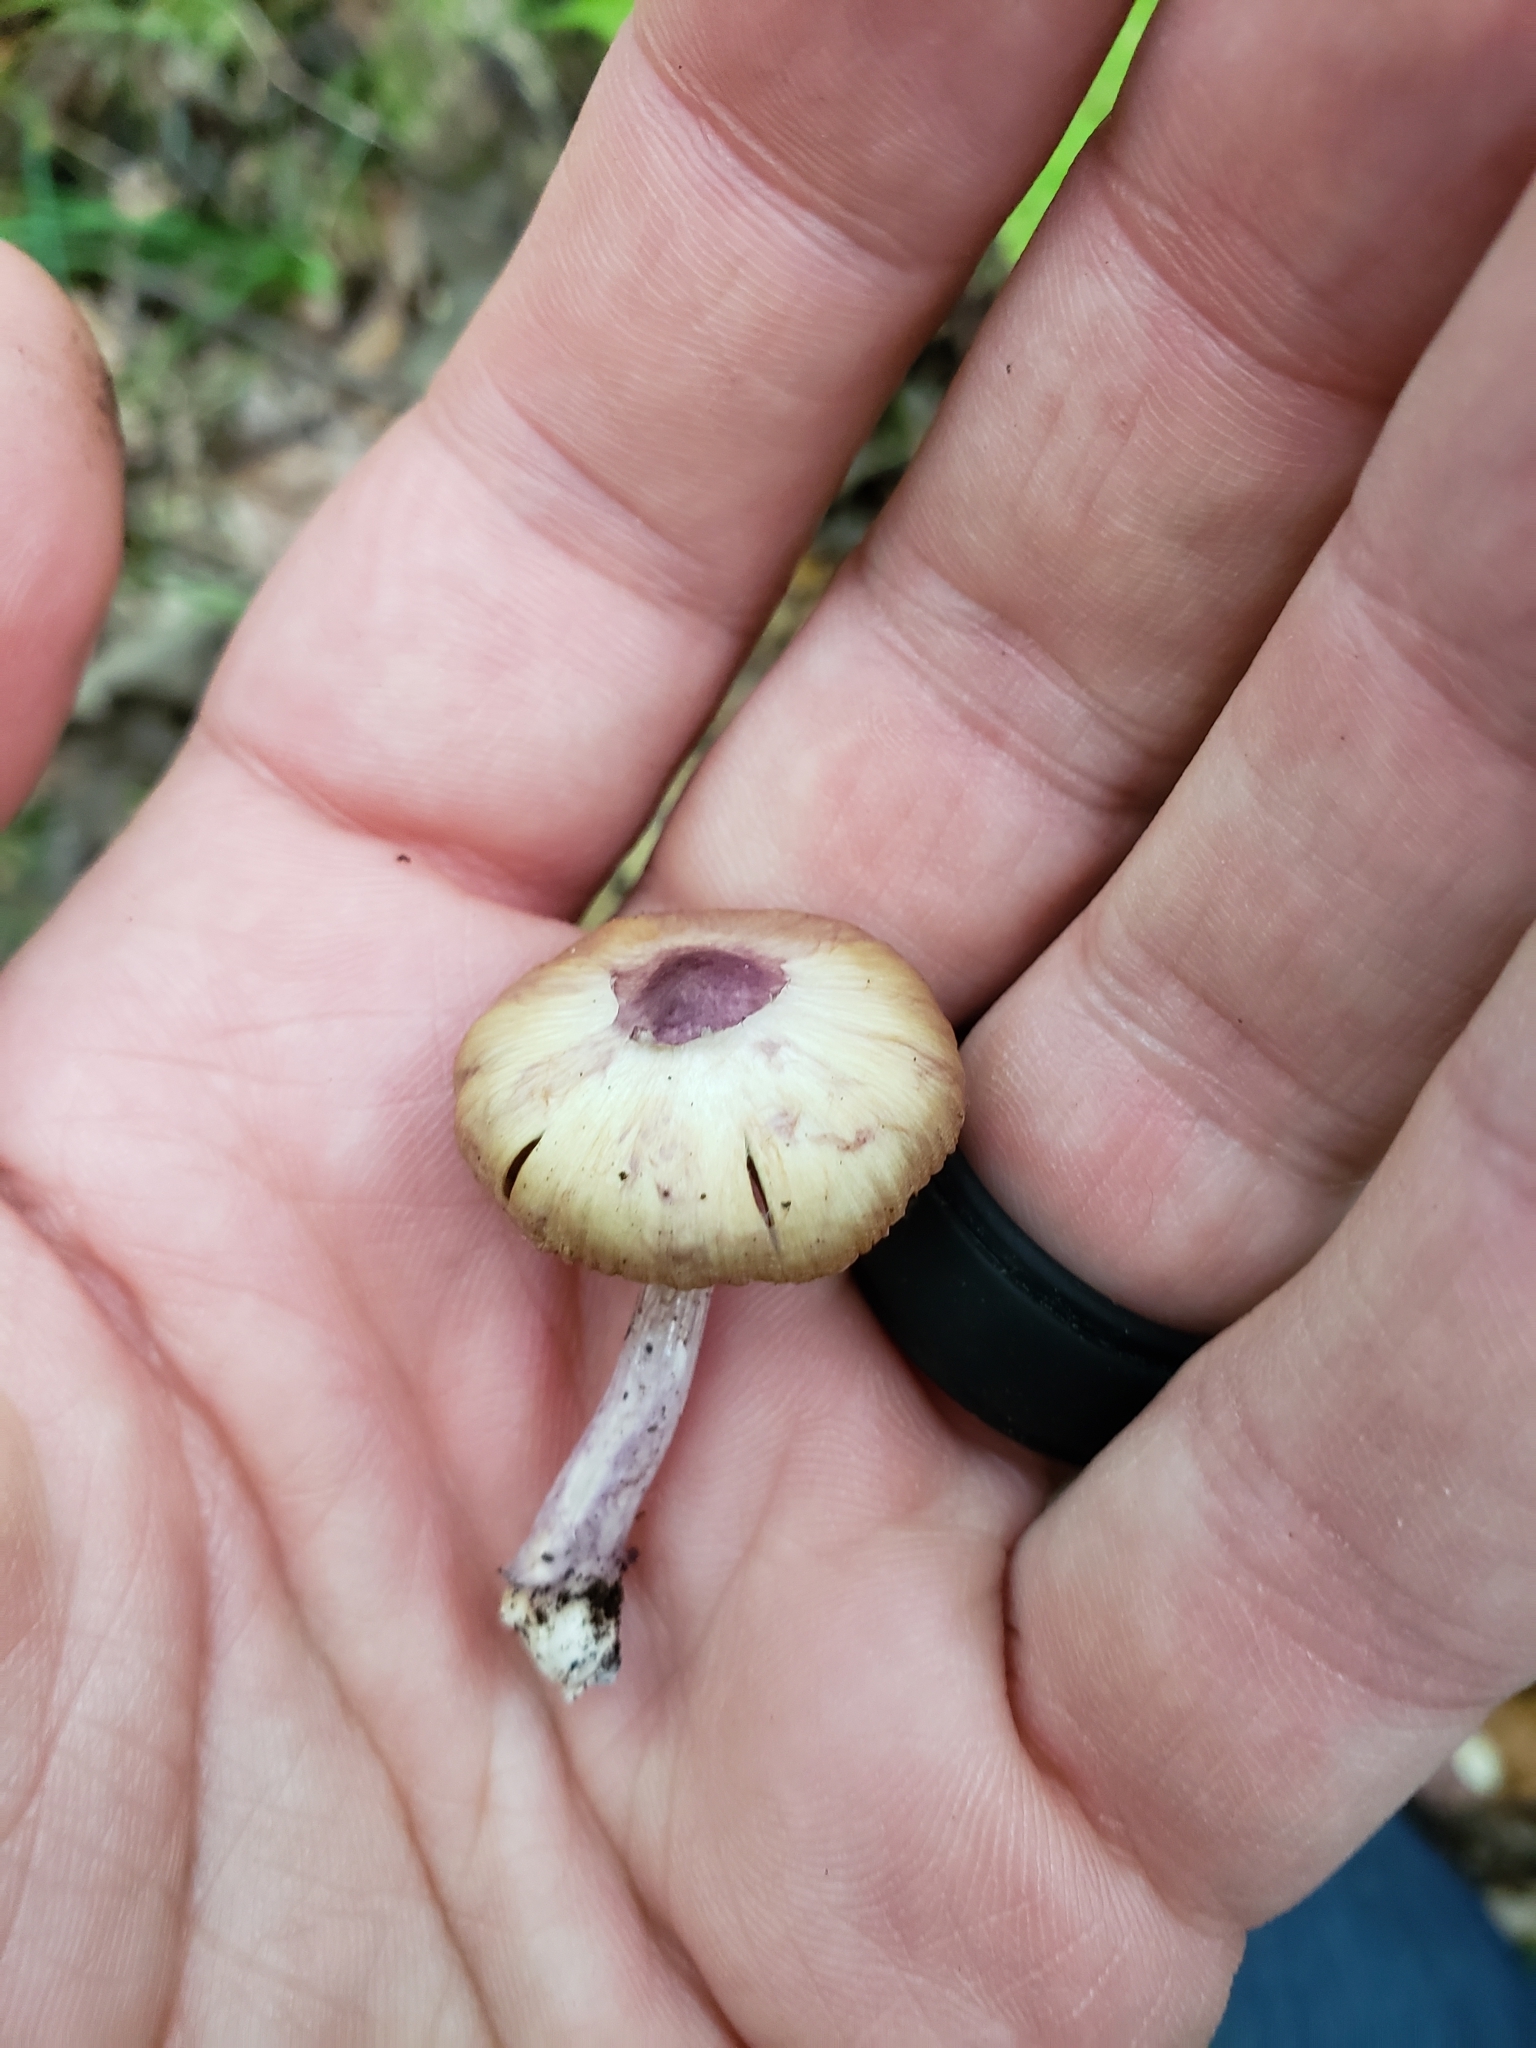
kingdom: Fungi
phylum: Basidiomycota
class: Agaricomycetes
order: Agaricales
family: Inocybaceae
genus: Inocybe
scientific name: Inocybe geophylla
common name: White fibrecap
